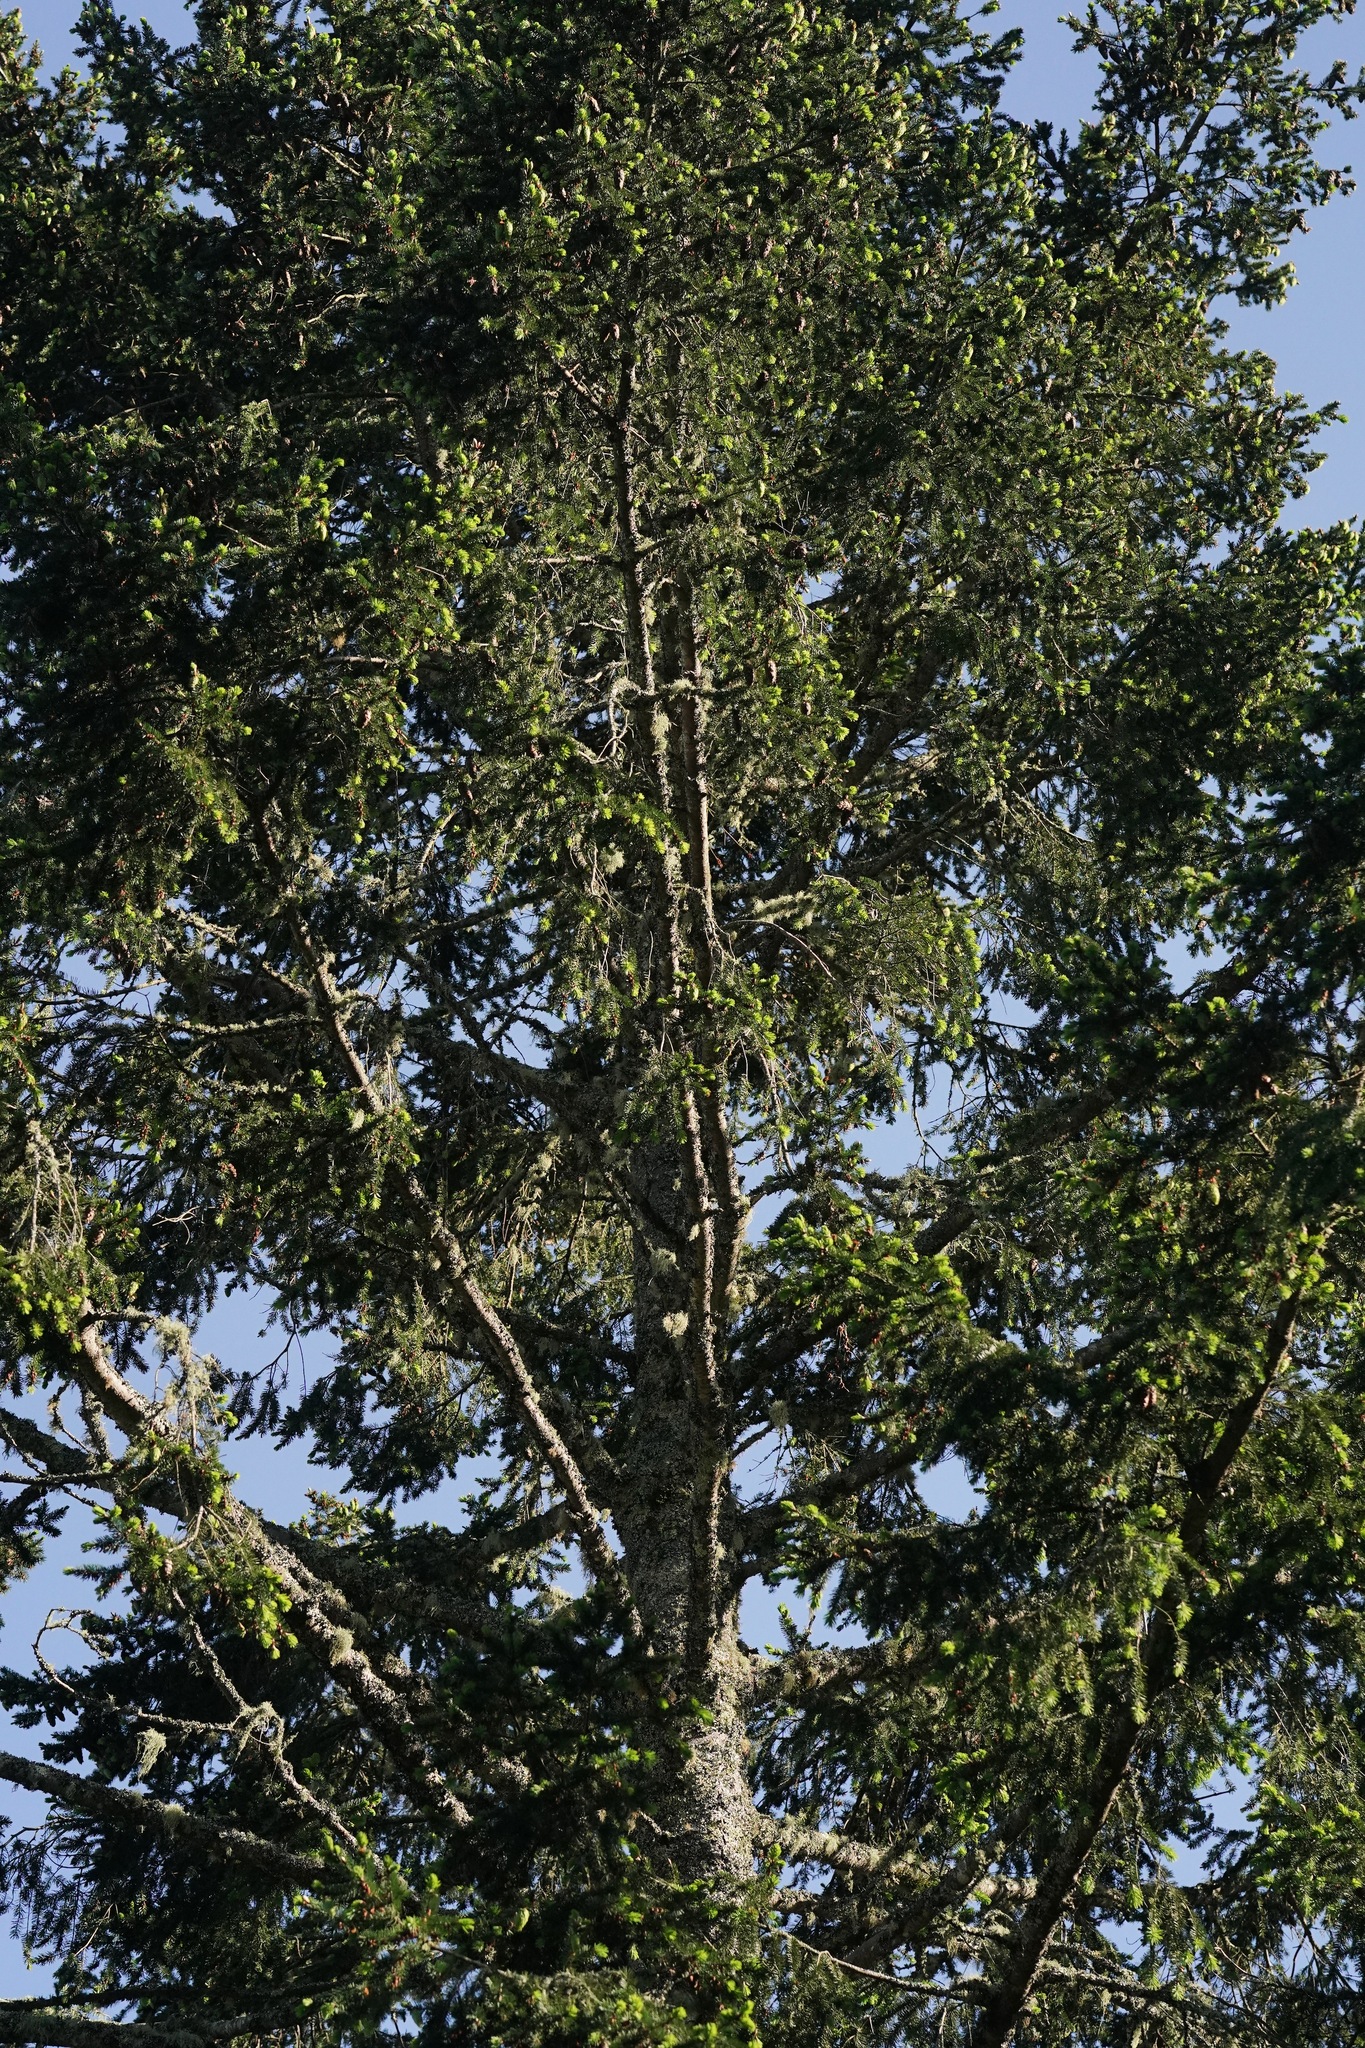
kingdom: Plantae
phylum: Tracheophyta
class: Pinopsida
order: Pinales
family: Pinaceae
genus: Pseudotsuga
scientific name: Pseudotsuga menziesii
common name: Douglas fir
